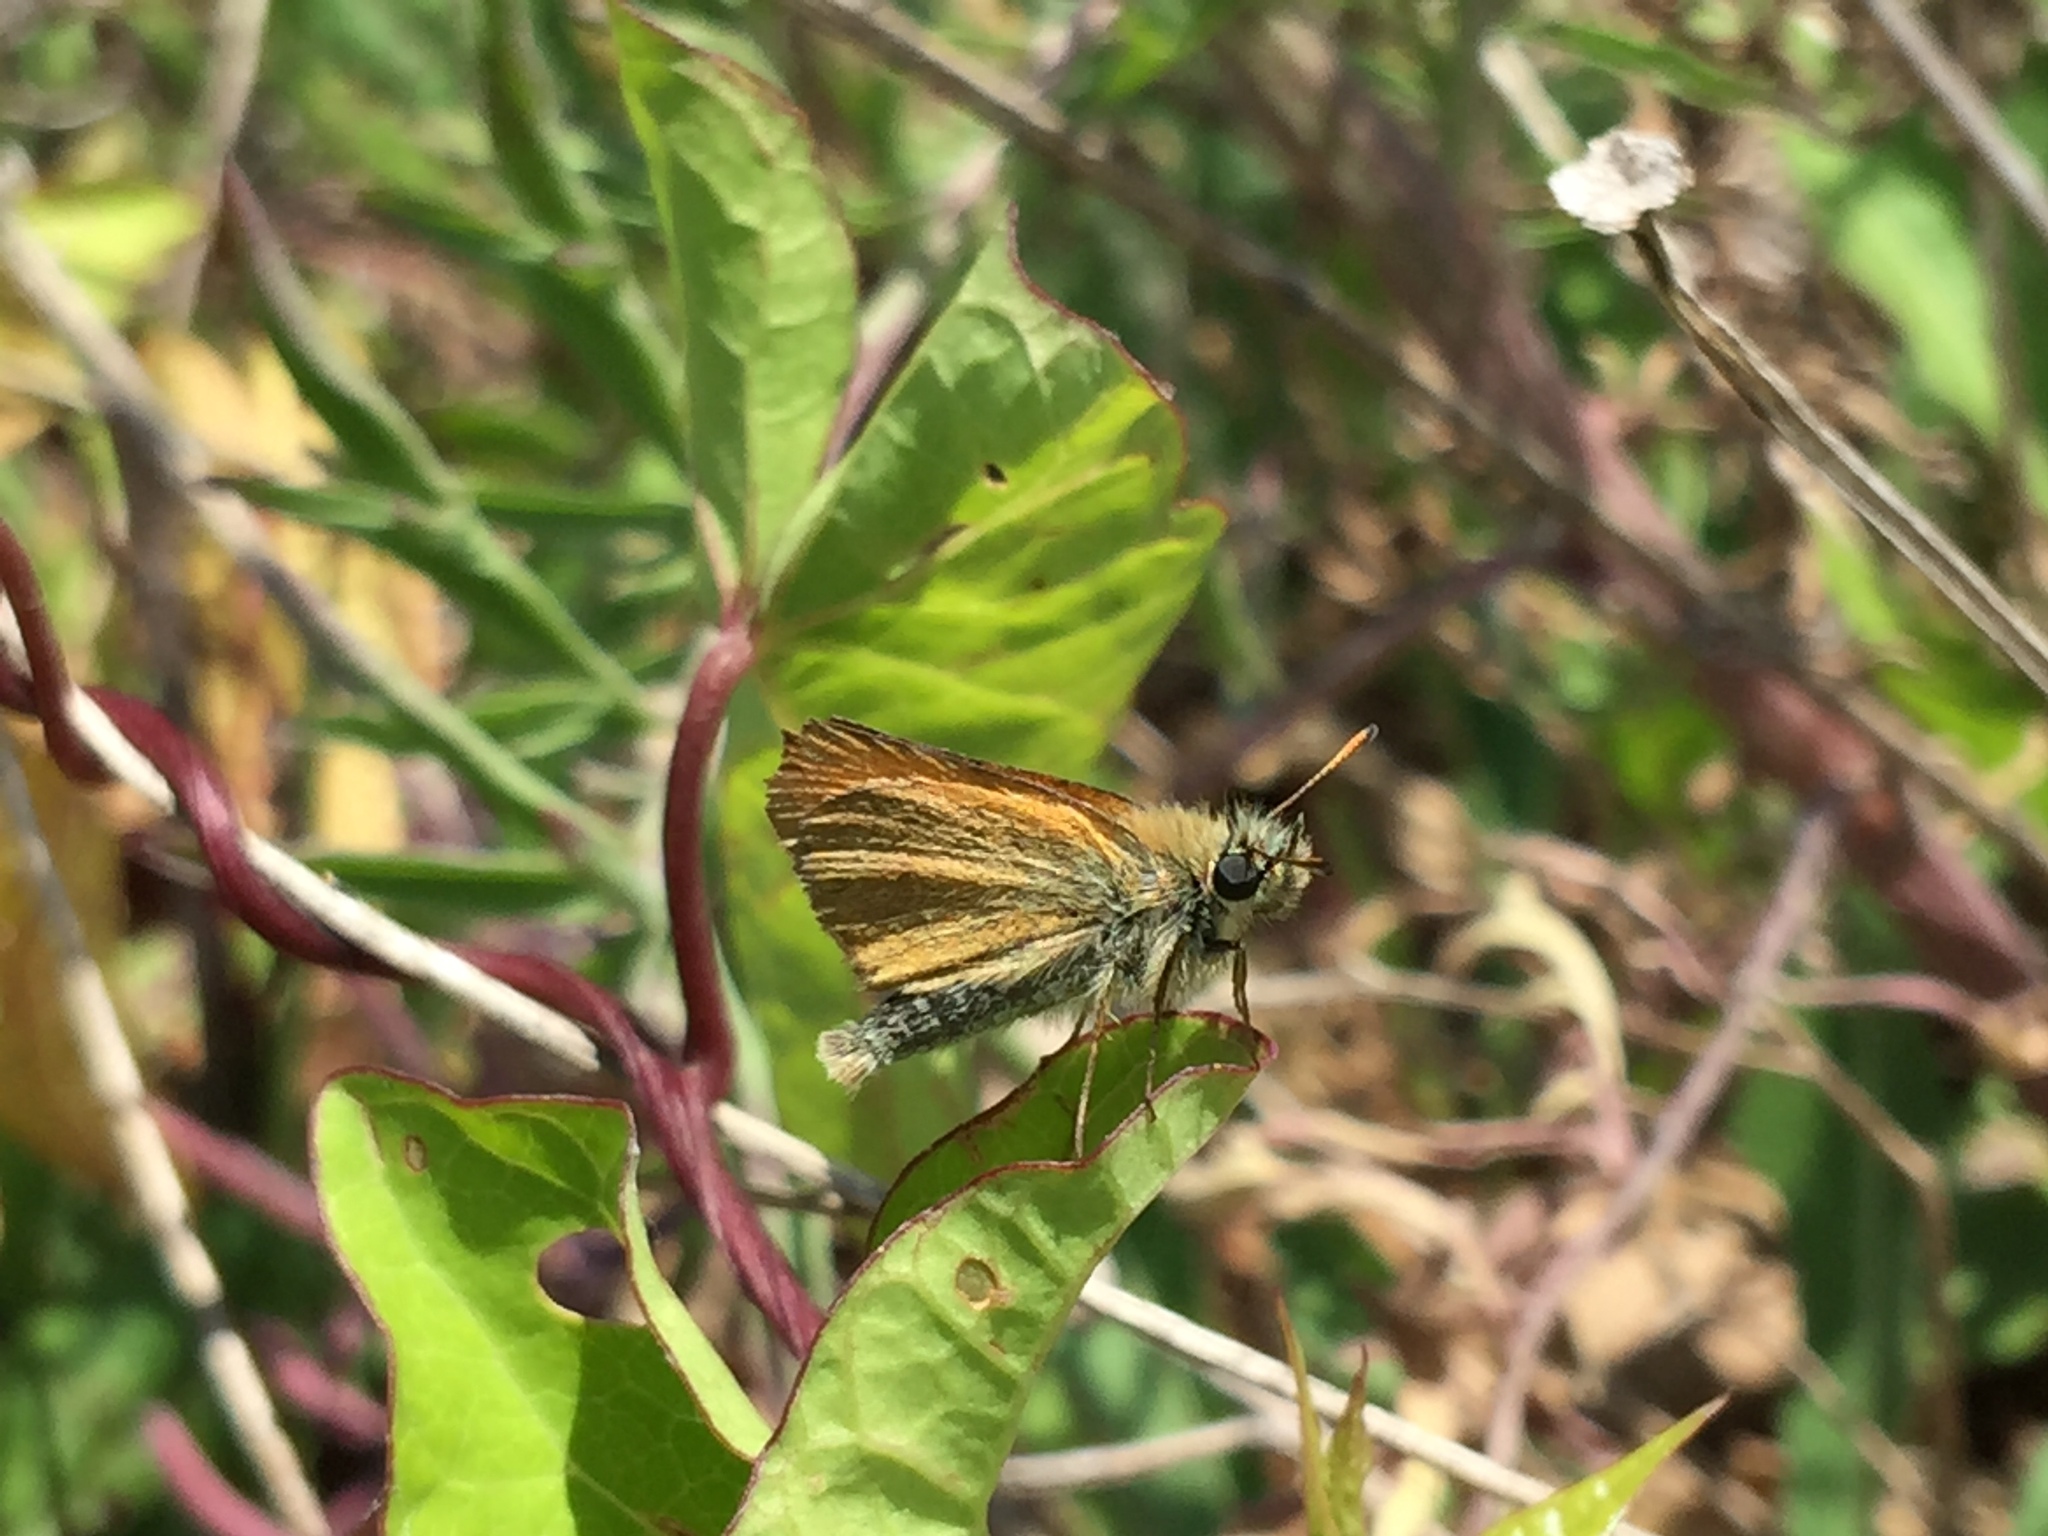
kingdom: Animalia
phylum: Arthropoda
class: Insecta
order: Lepidoptera
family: Hesperiidae
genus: Thymelicus
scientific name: Thymelicus lineola
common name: Essex skipper
